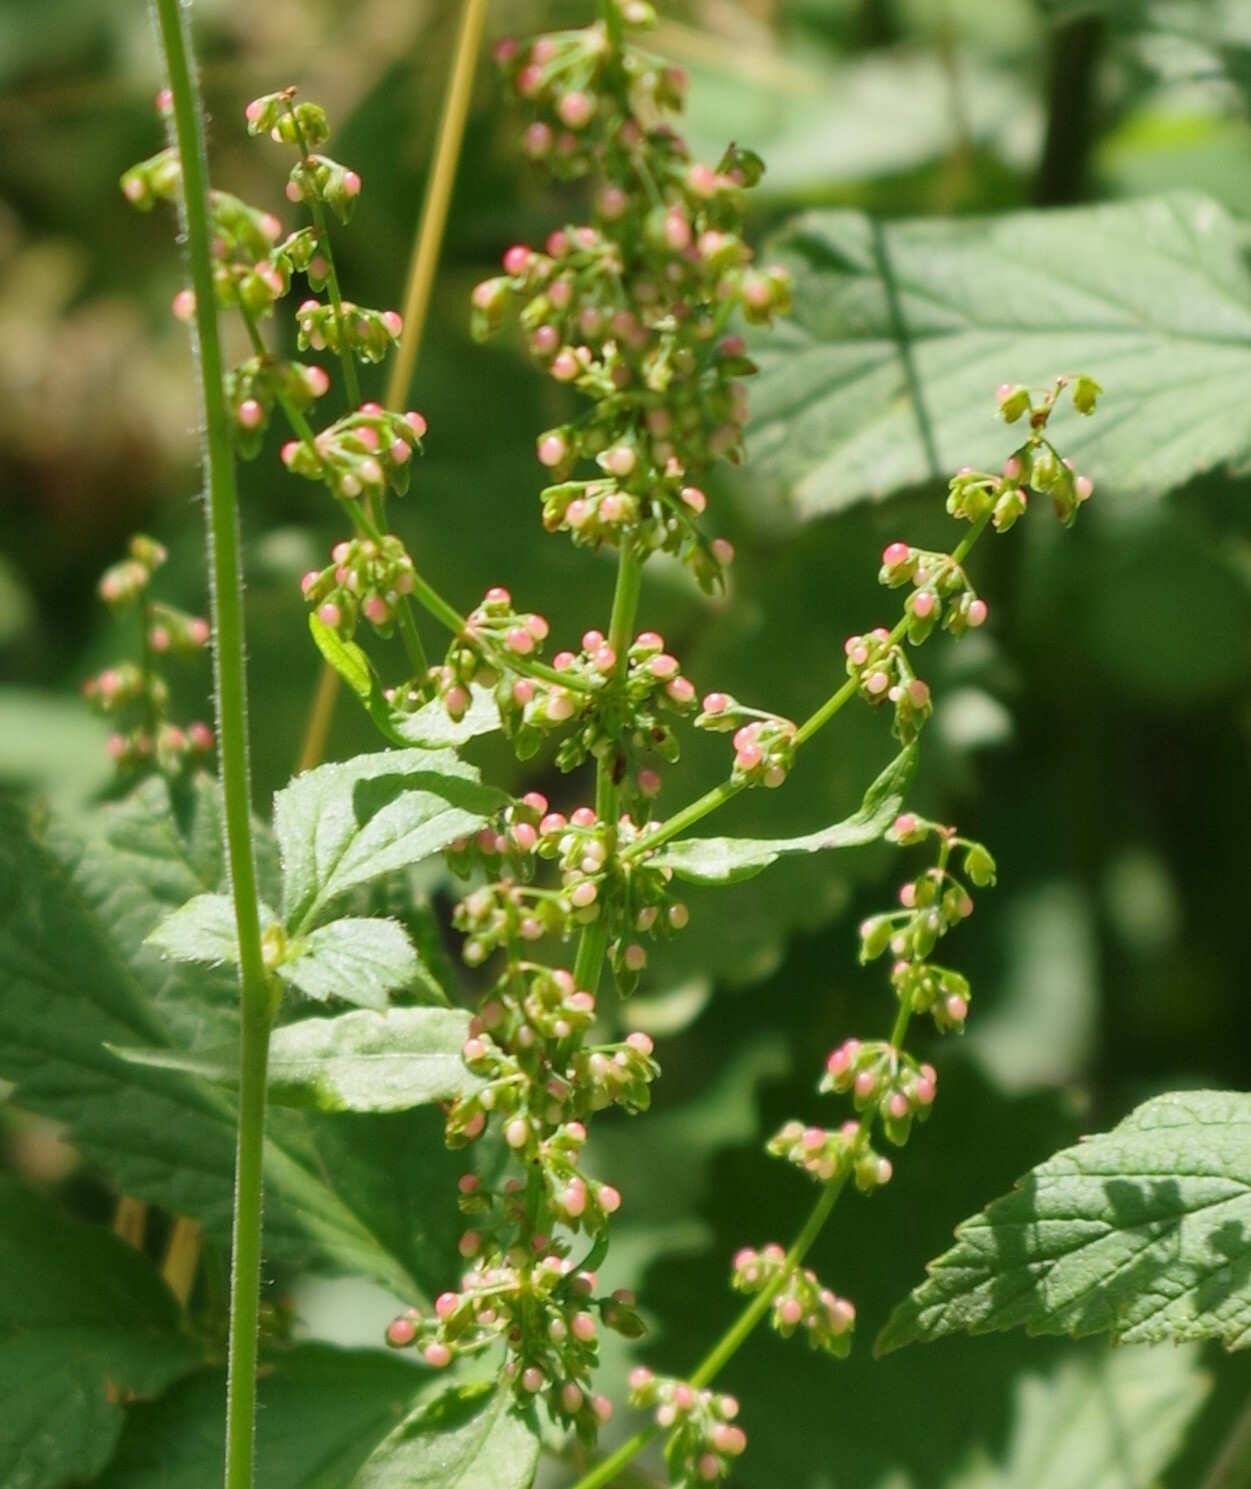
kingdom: Plantae
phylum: Tracheophyta
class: Magnoliopsida
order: Caryophyllales
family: Polygonaceae
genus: Rumex
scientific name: Rumex sanguineus
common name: Wood dock
